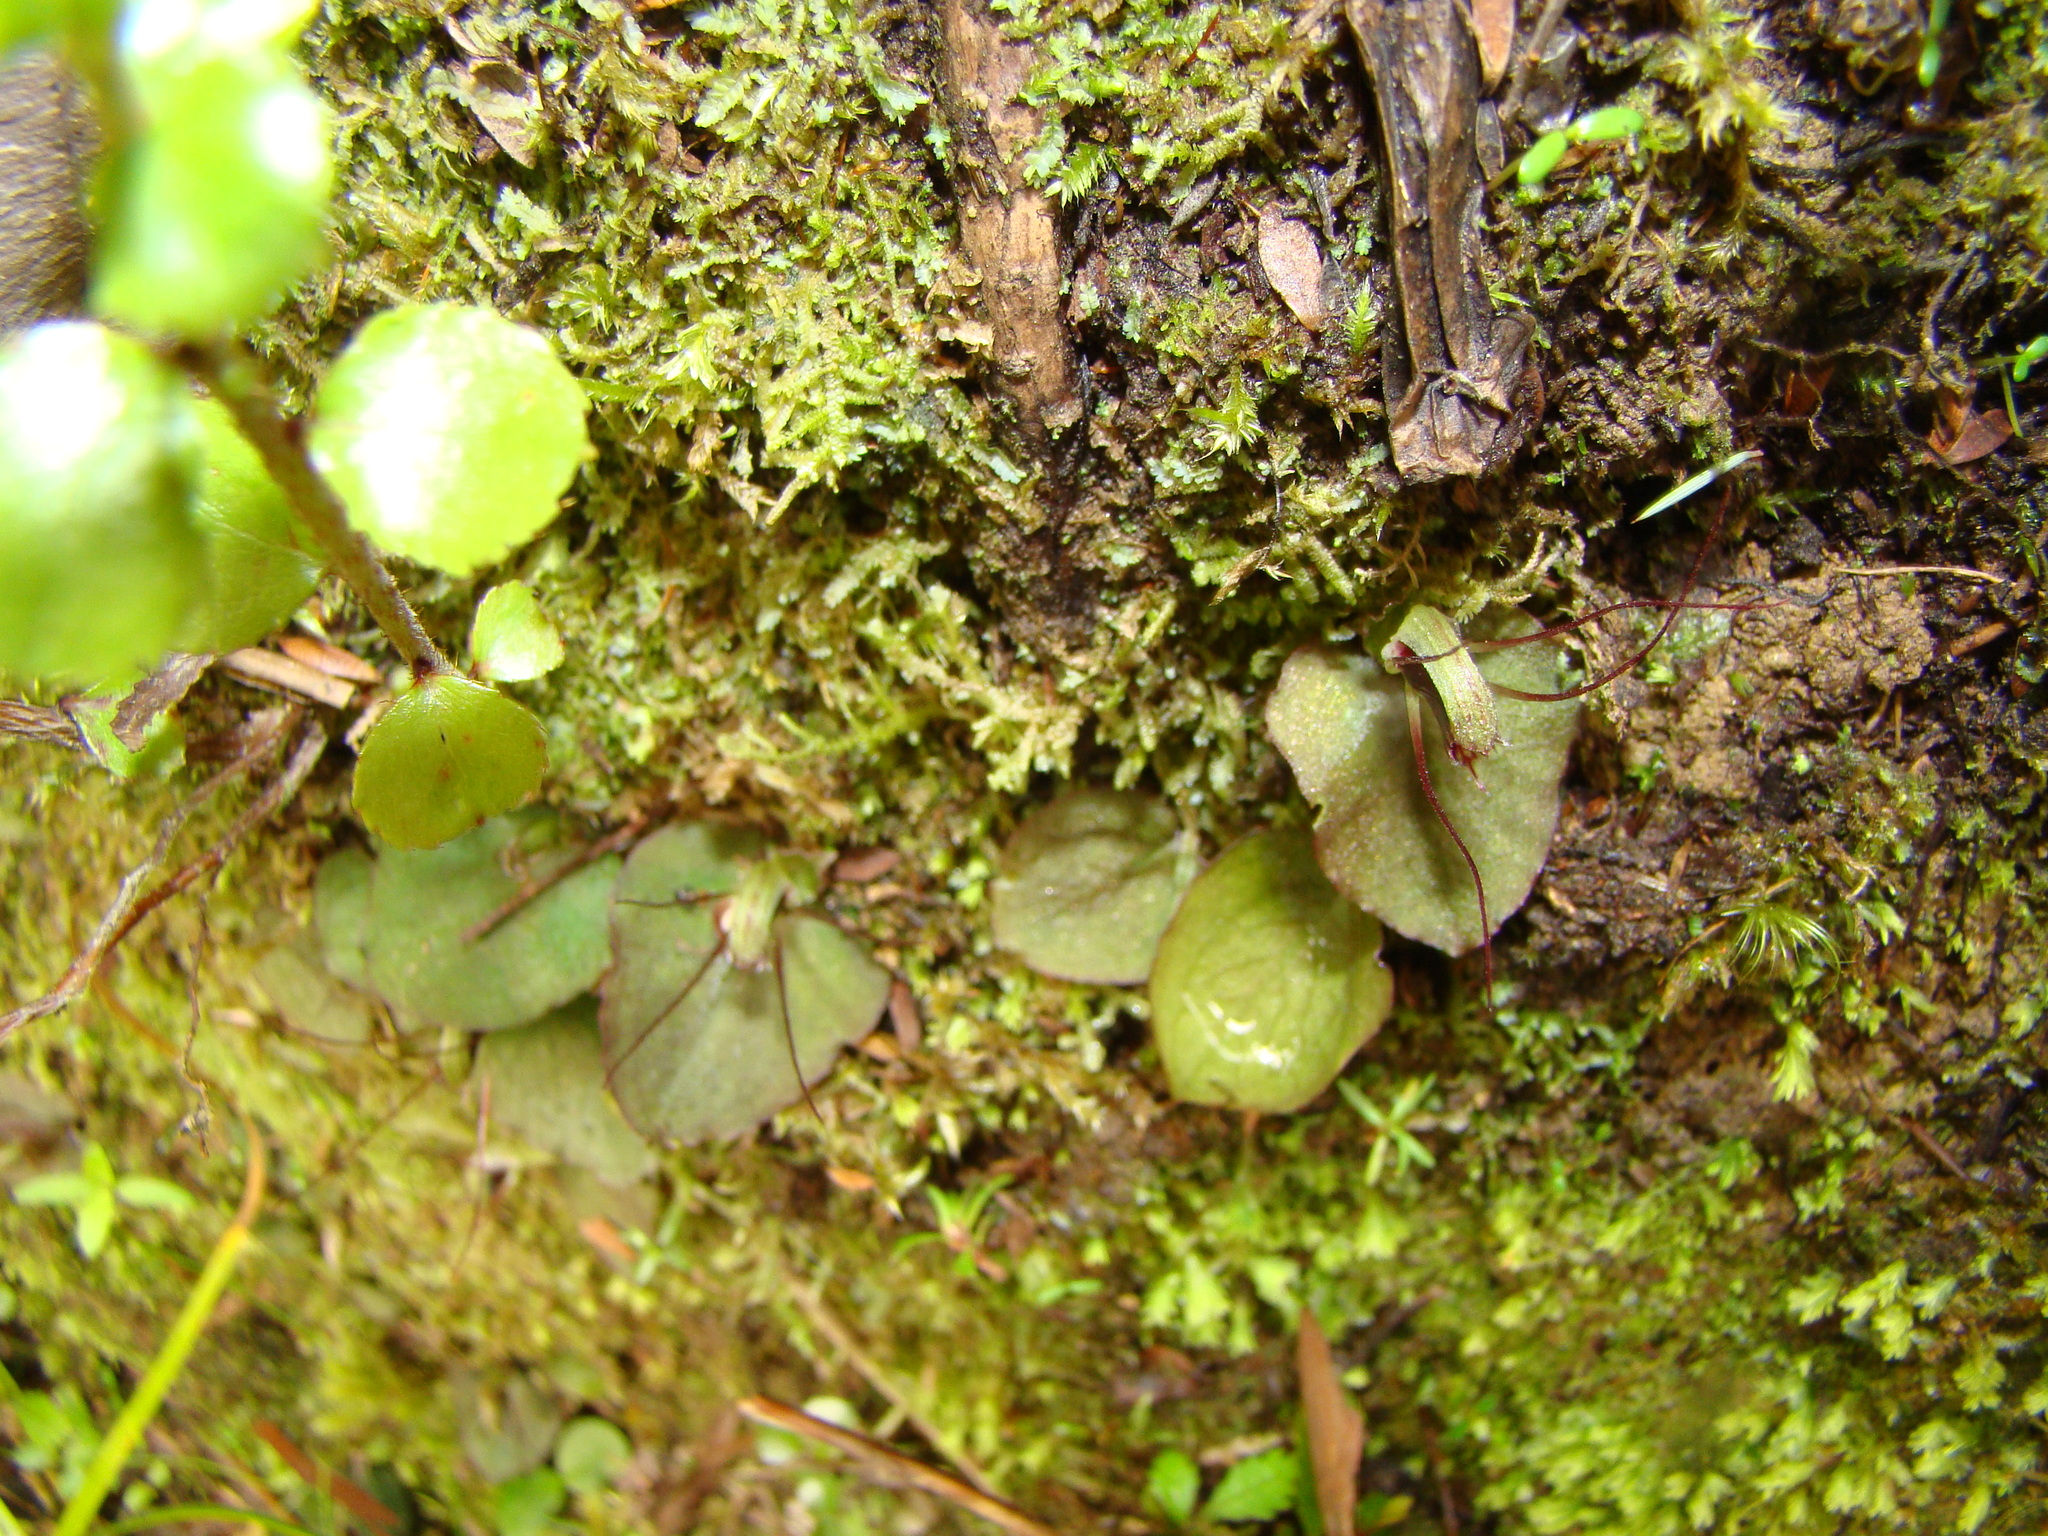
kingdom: Plantae
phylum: Tracheophyta
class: Liliopsida
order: Asparagales
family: Orchidaceae
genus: Corybas
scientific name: Corybas oblongus
